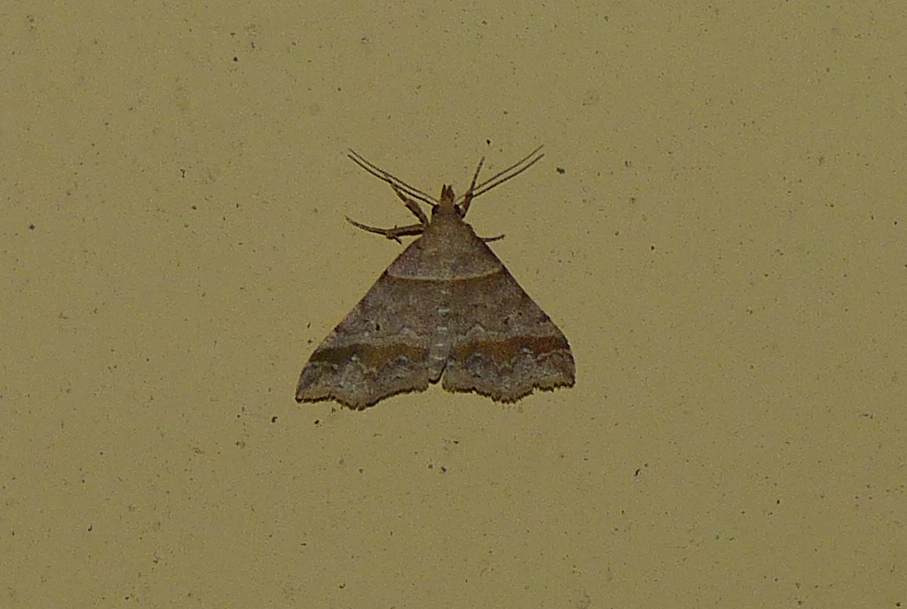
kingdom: Animalia
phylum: Arthropoda
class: Insecta
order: Lepidoptera
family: Erebidae
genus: Phaeolita
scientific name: Phaeolita pyramusalis
